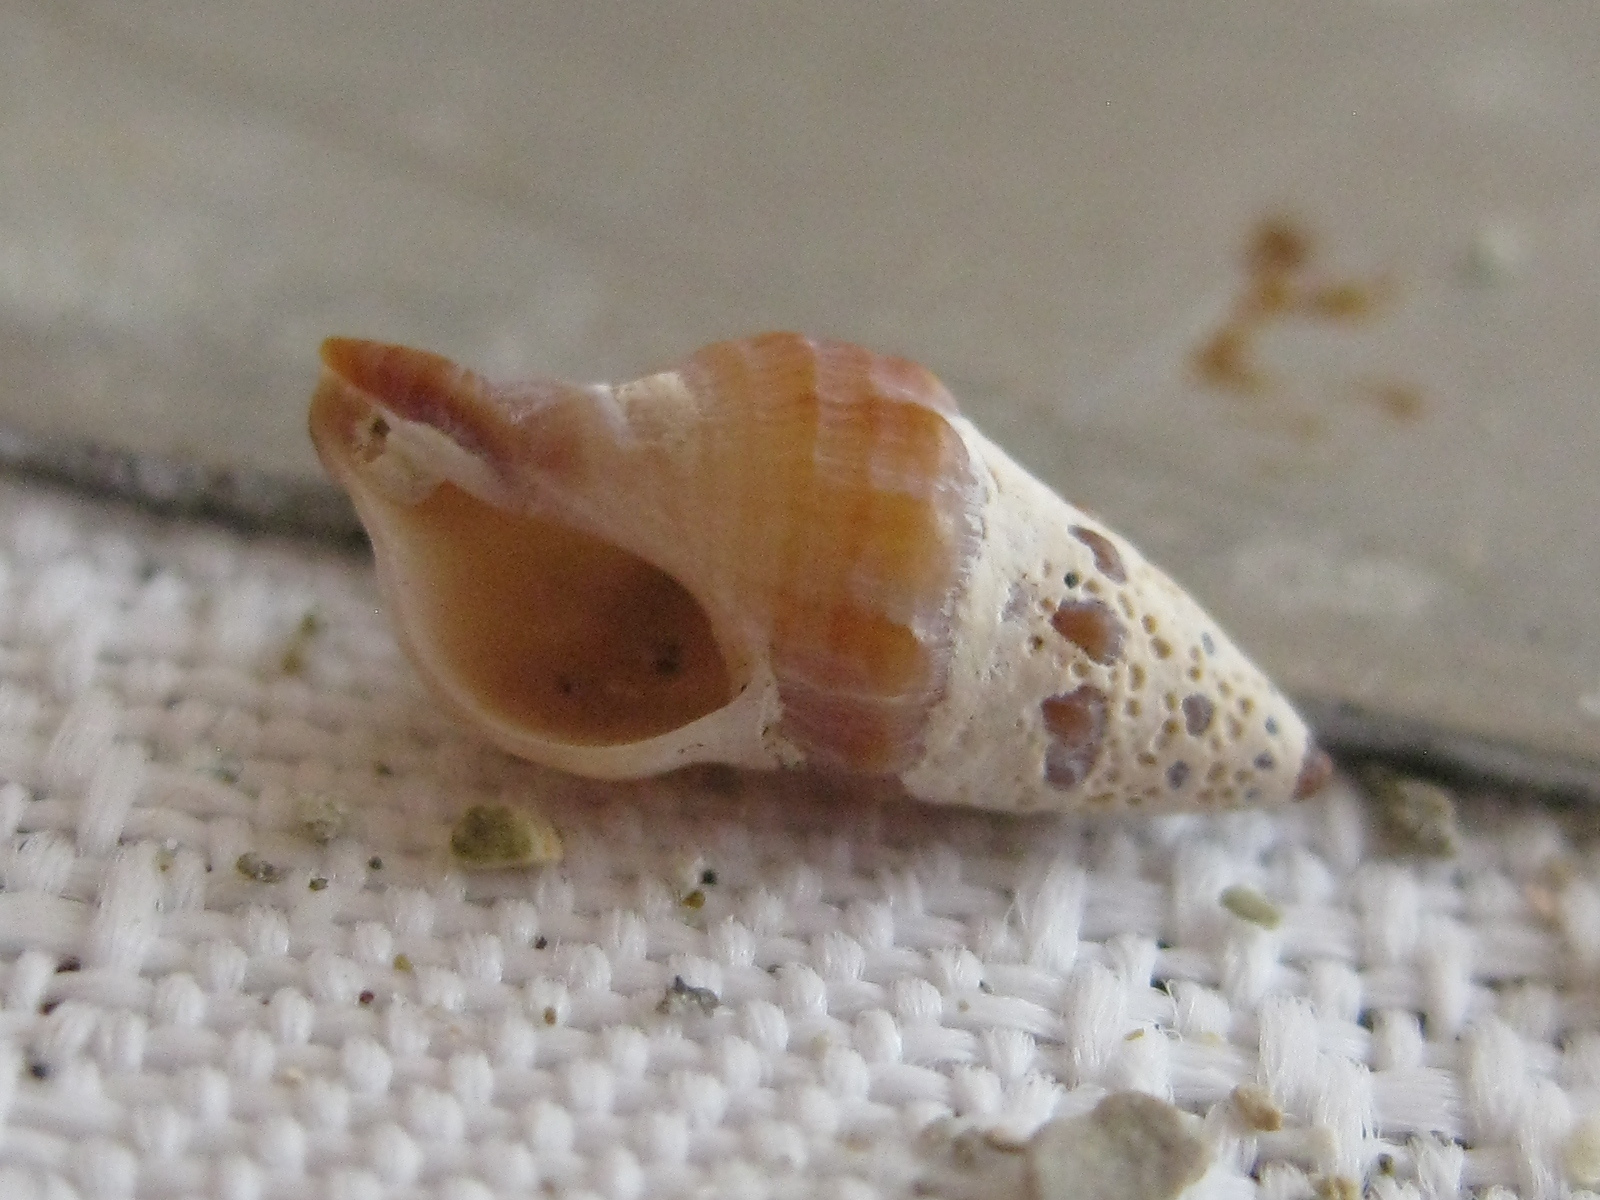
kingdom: Animalia
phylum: Mollusca
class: Gastropoda
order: Neogastropoda
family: Muricidae
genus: Axymene
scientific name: Axymene
